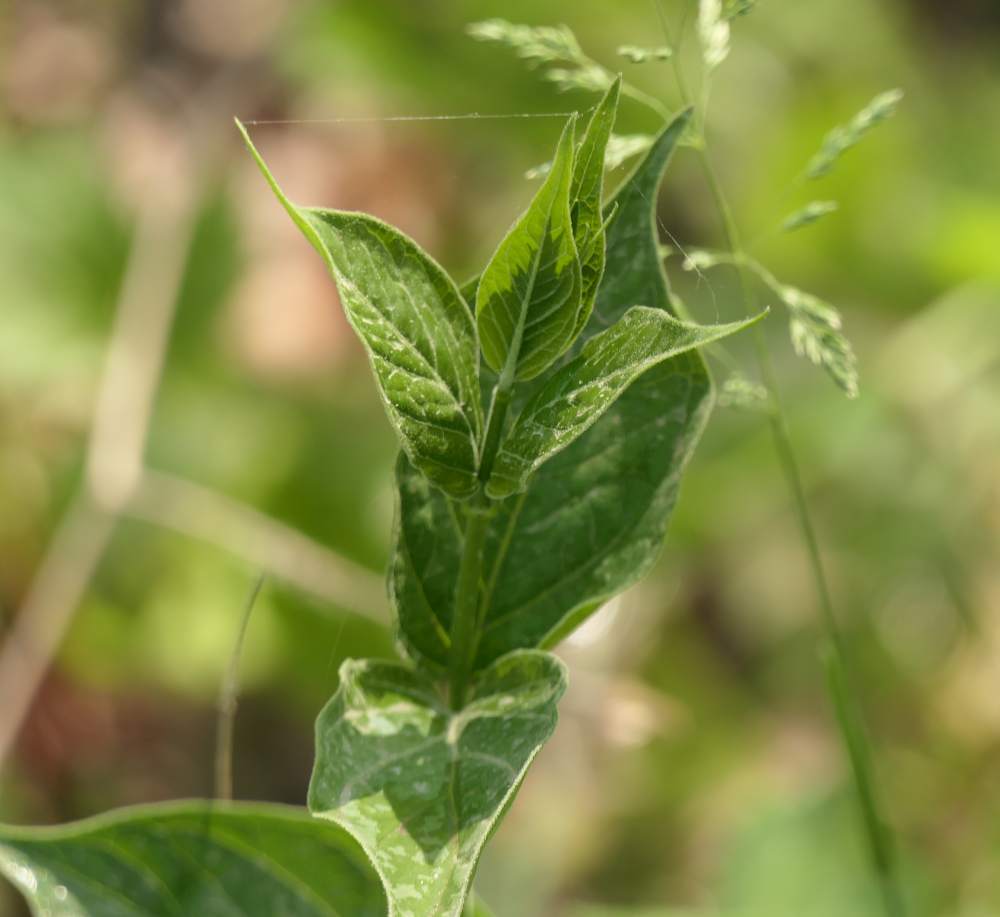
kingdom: Plantae
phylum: Tracheophyta
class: Magnoliopsida
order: Gentianales
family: Apocynaceae
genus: Vincetoxicum
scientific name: Vincetoxicum rossicum
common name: Dog-strangling vine
